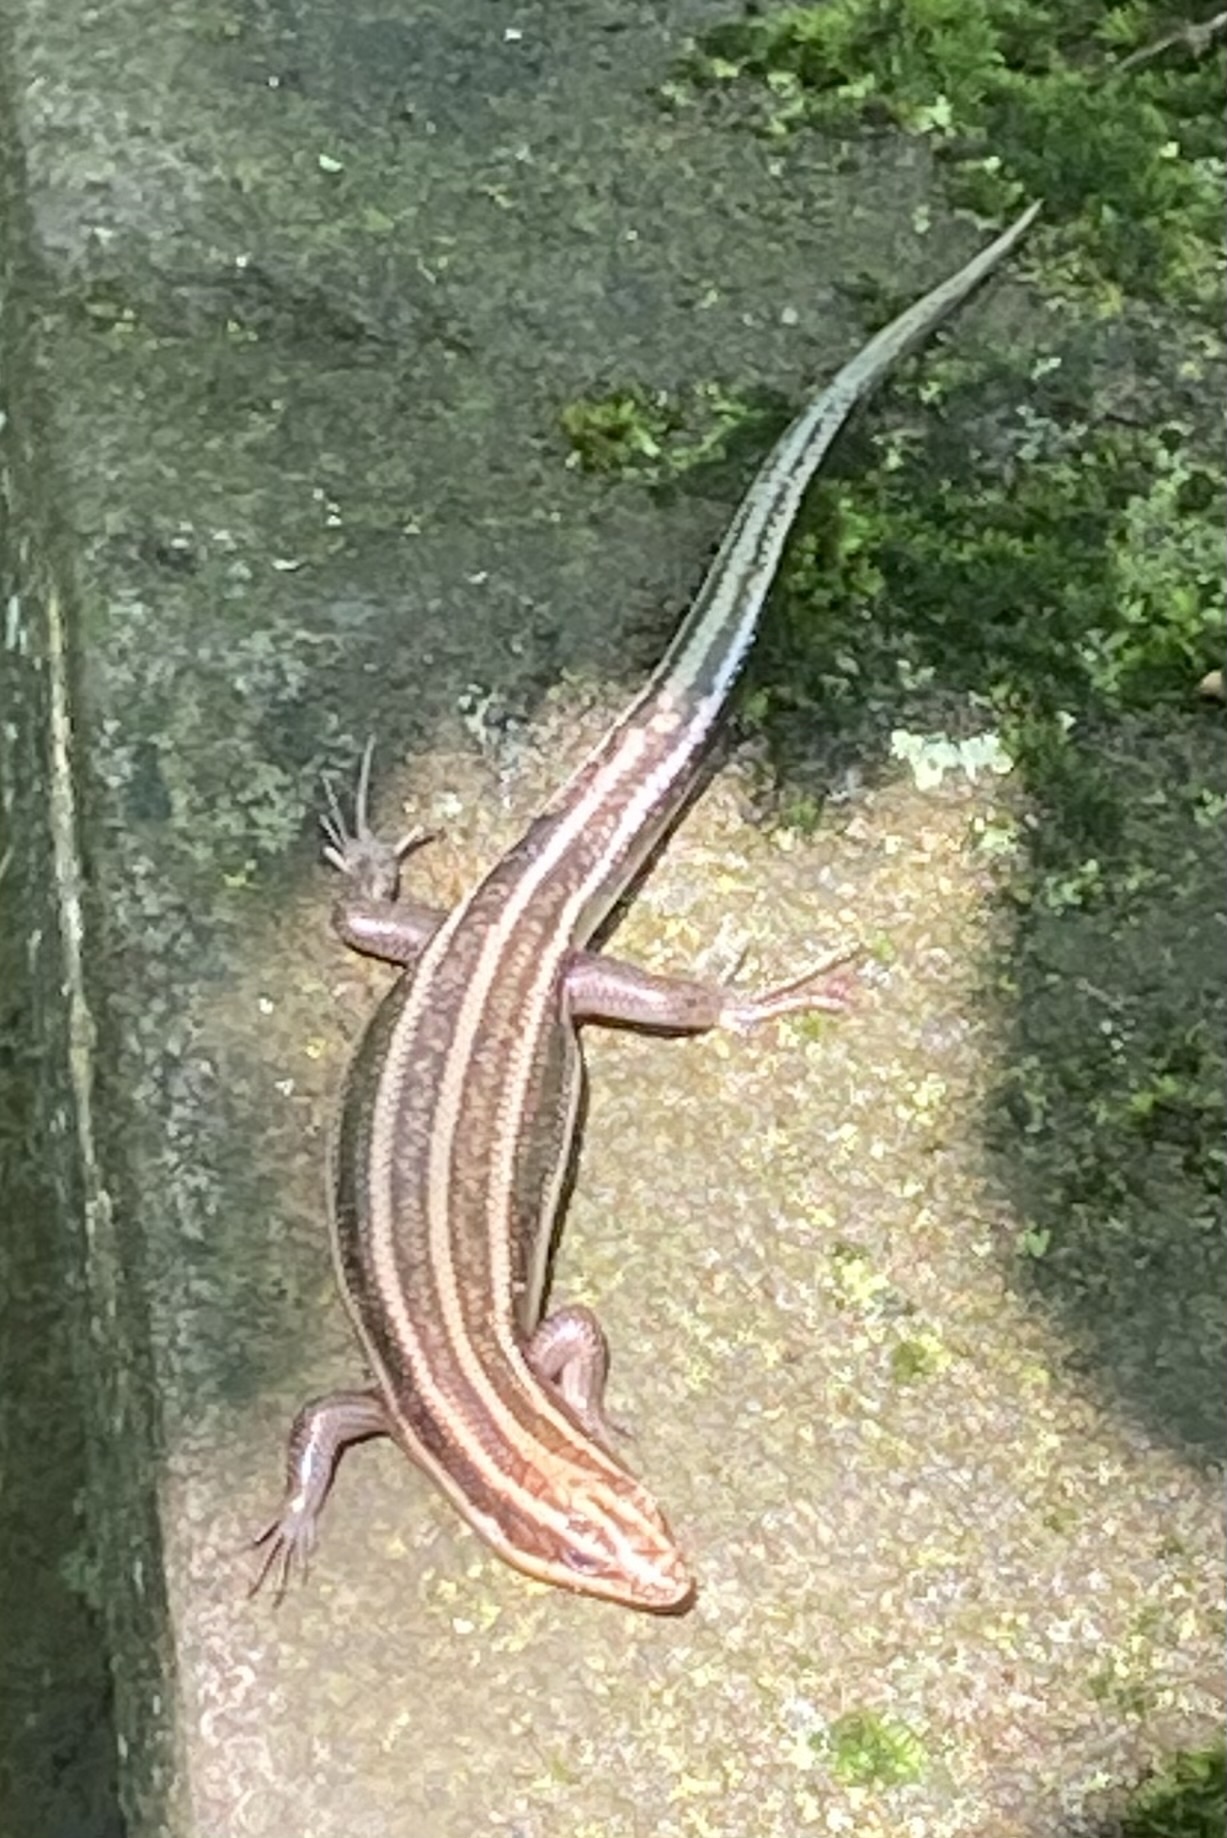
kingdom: Animalia
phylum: Chordata
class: Squamata
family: Scincidae
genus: Plestiodon
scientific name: Plestiodon fasciatus
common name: Five-lined skink
